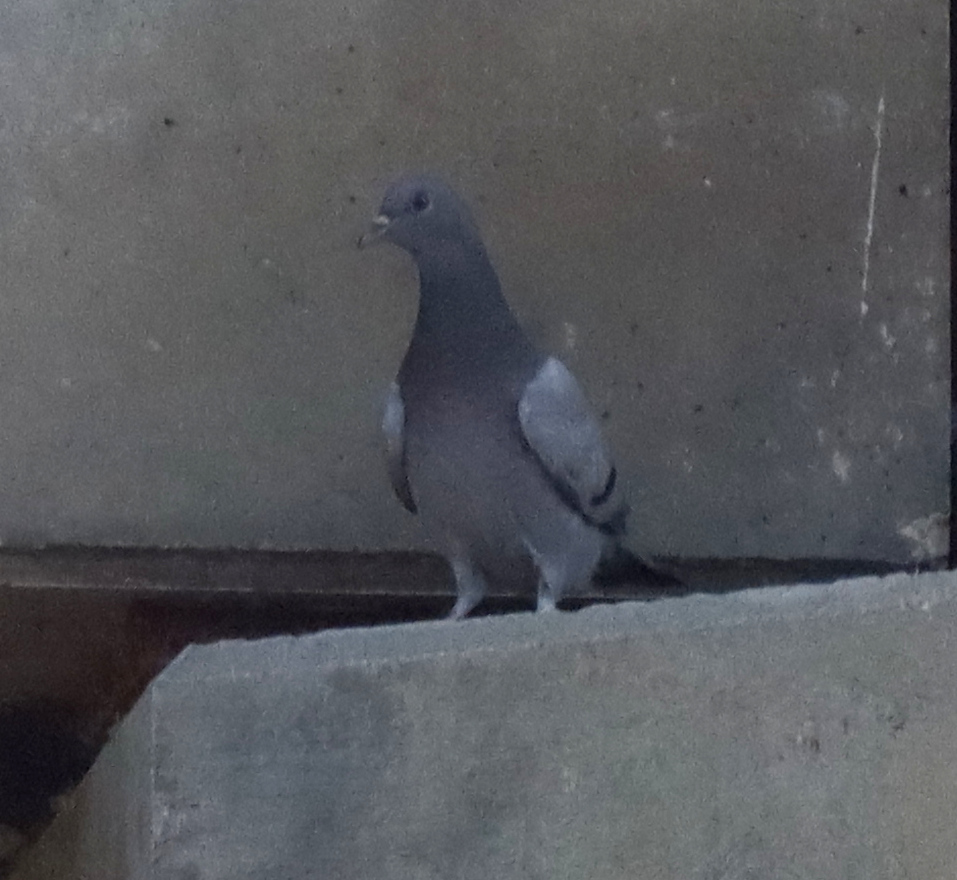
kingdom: Animalia
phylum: Chordata
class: Aves
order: Columbiformes
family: Columbidae
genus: Columba
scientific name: Columba livia
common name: Rock pigeon
